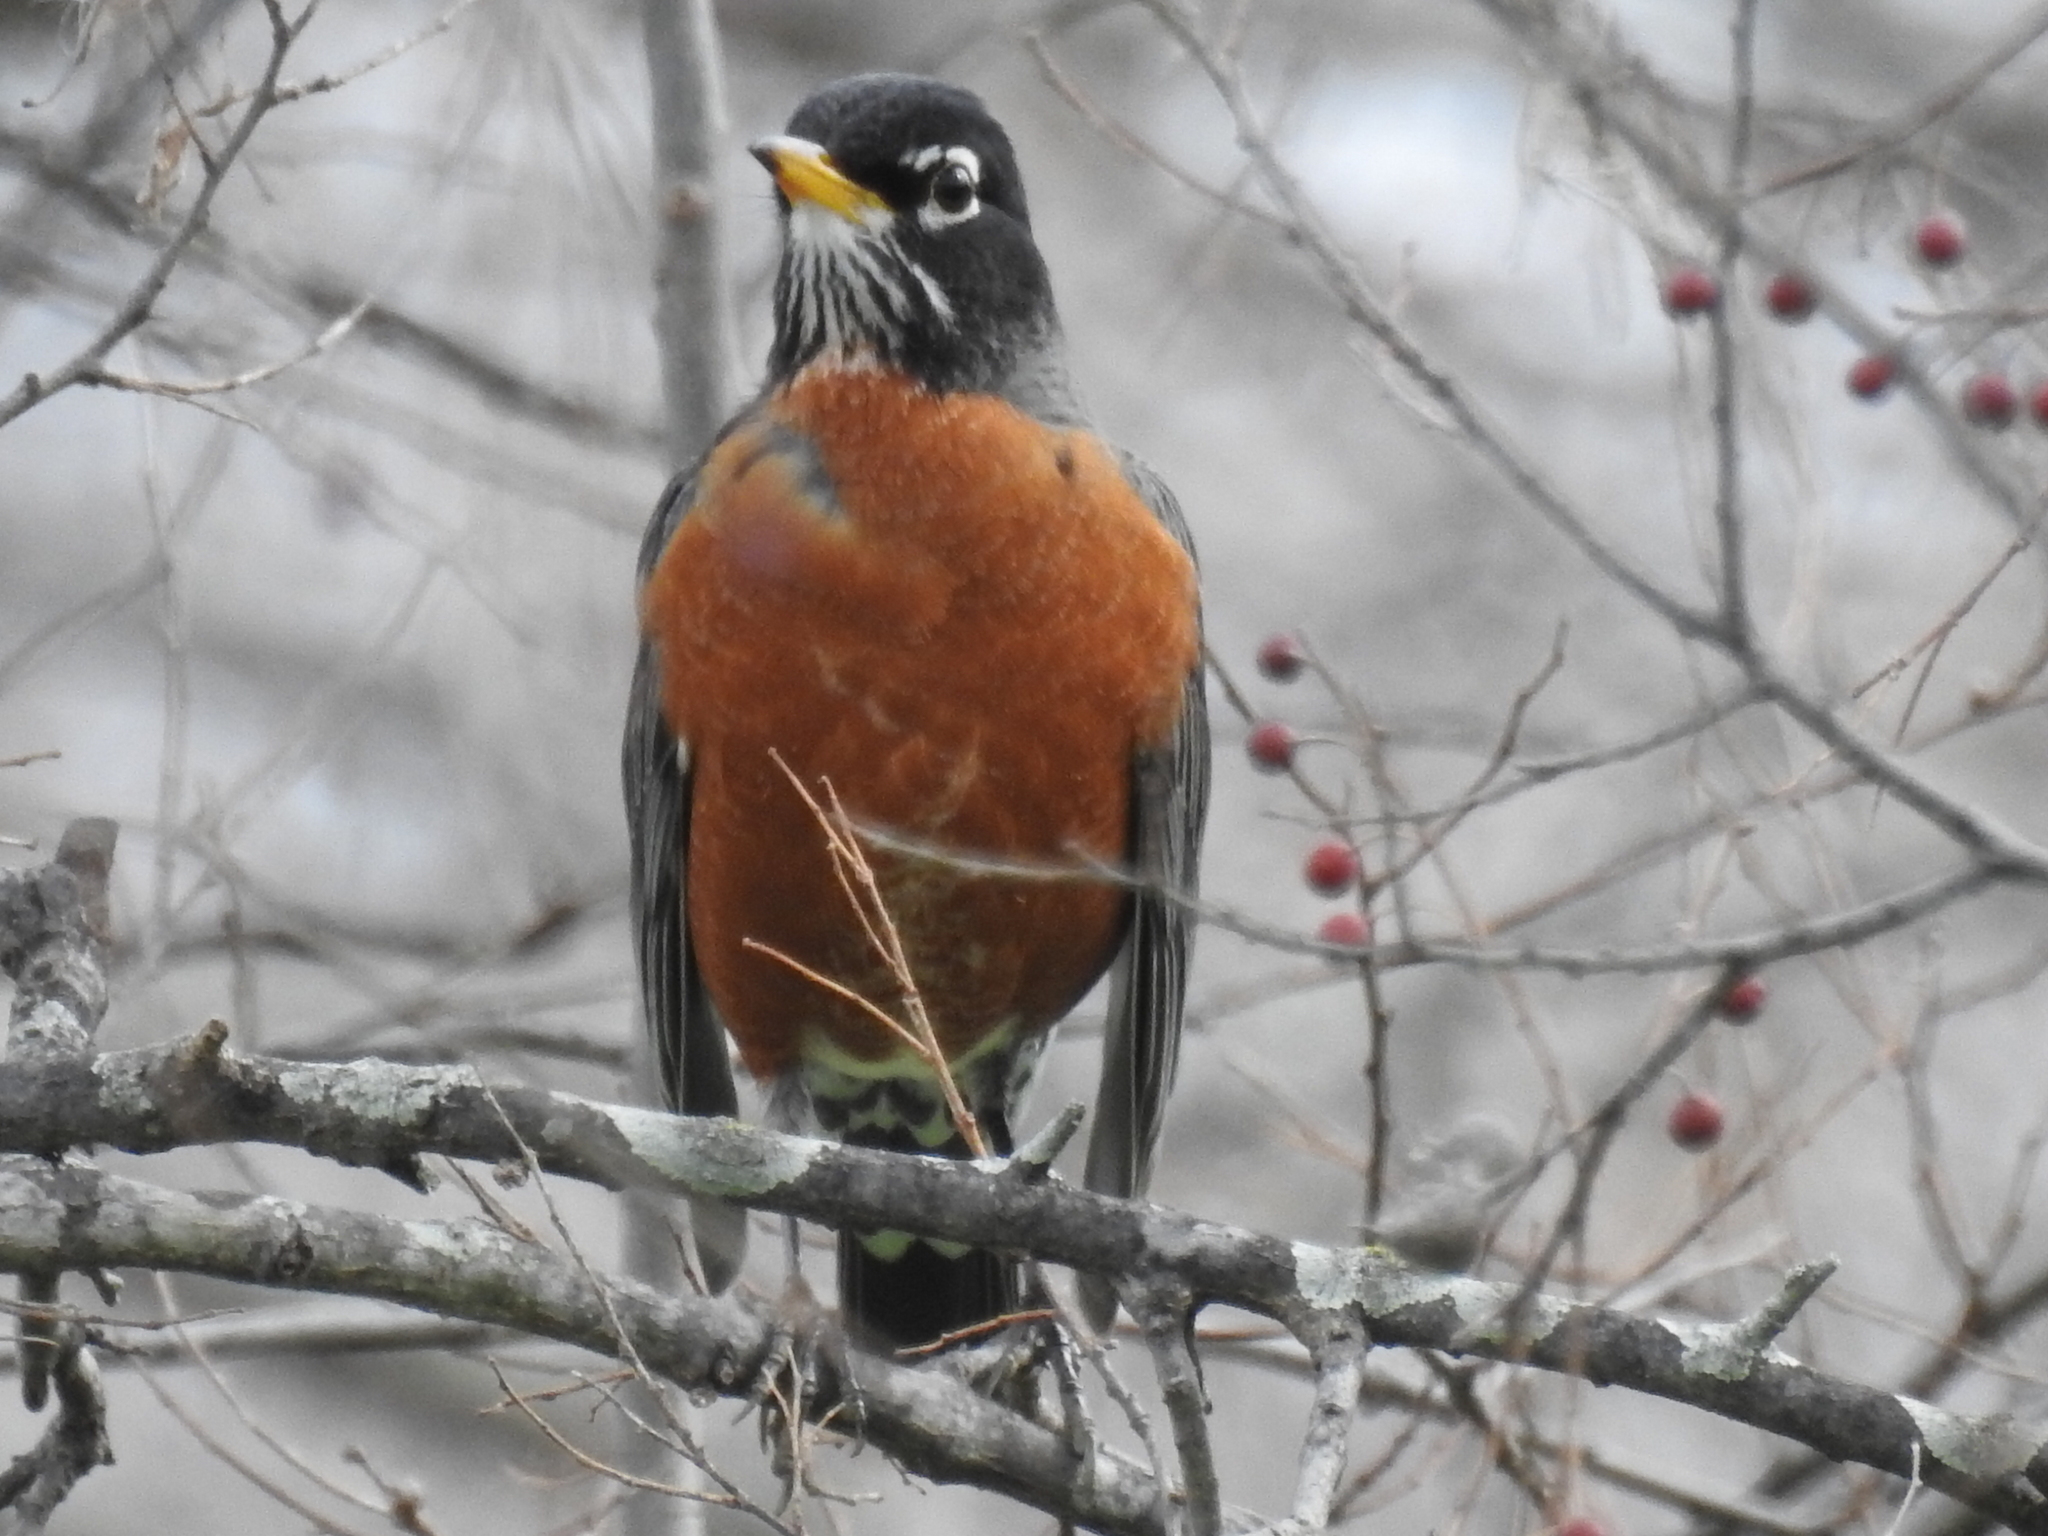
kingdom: Animalia
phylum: Chordata
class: Aves
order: Passeriformes
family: Turdidae
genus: Turdus
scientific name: Turdus migratorius
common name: American robin
